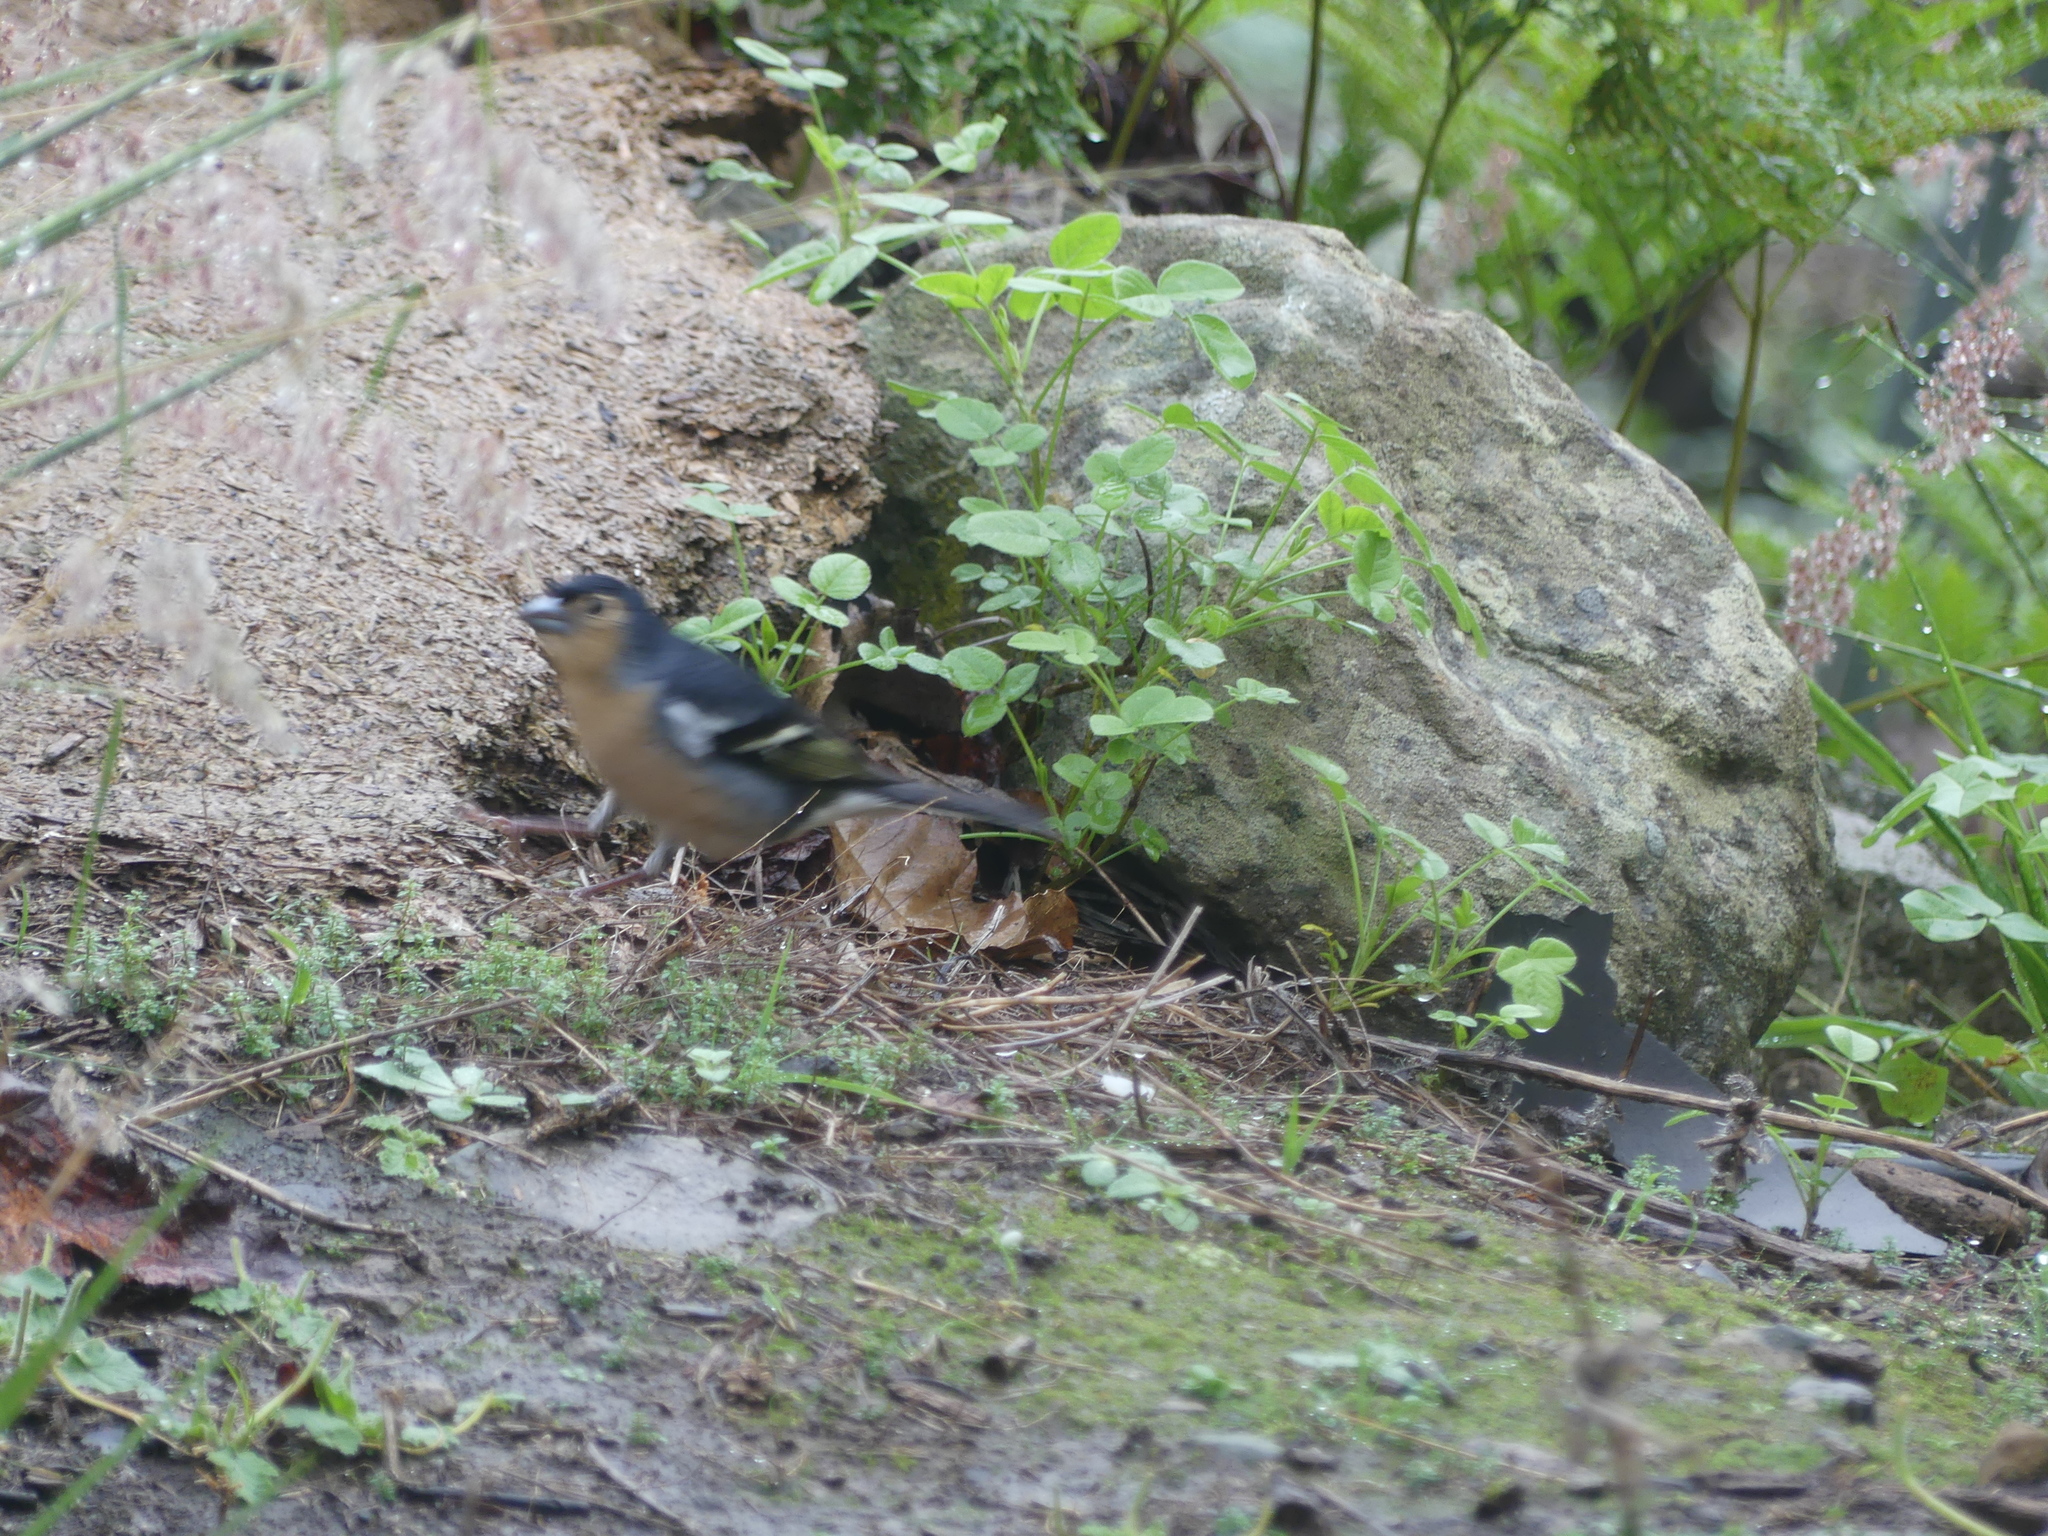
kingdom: Animalia
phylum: Chordata
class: Aves
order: Passeriformes
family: Fringillidae
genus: Fringilla
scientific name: Fringilla canariensis
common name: Canary islands chaffinch
